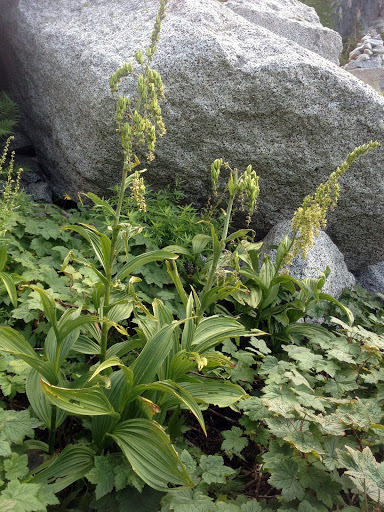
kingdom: Plantae
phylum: Tracheophyta
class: Liliopsida
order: Liliales
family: Melanthiaceae
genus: Veratrum
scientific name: Veratrum viride
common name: American false hellebore
